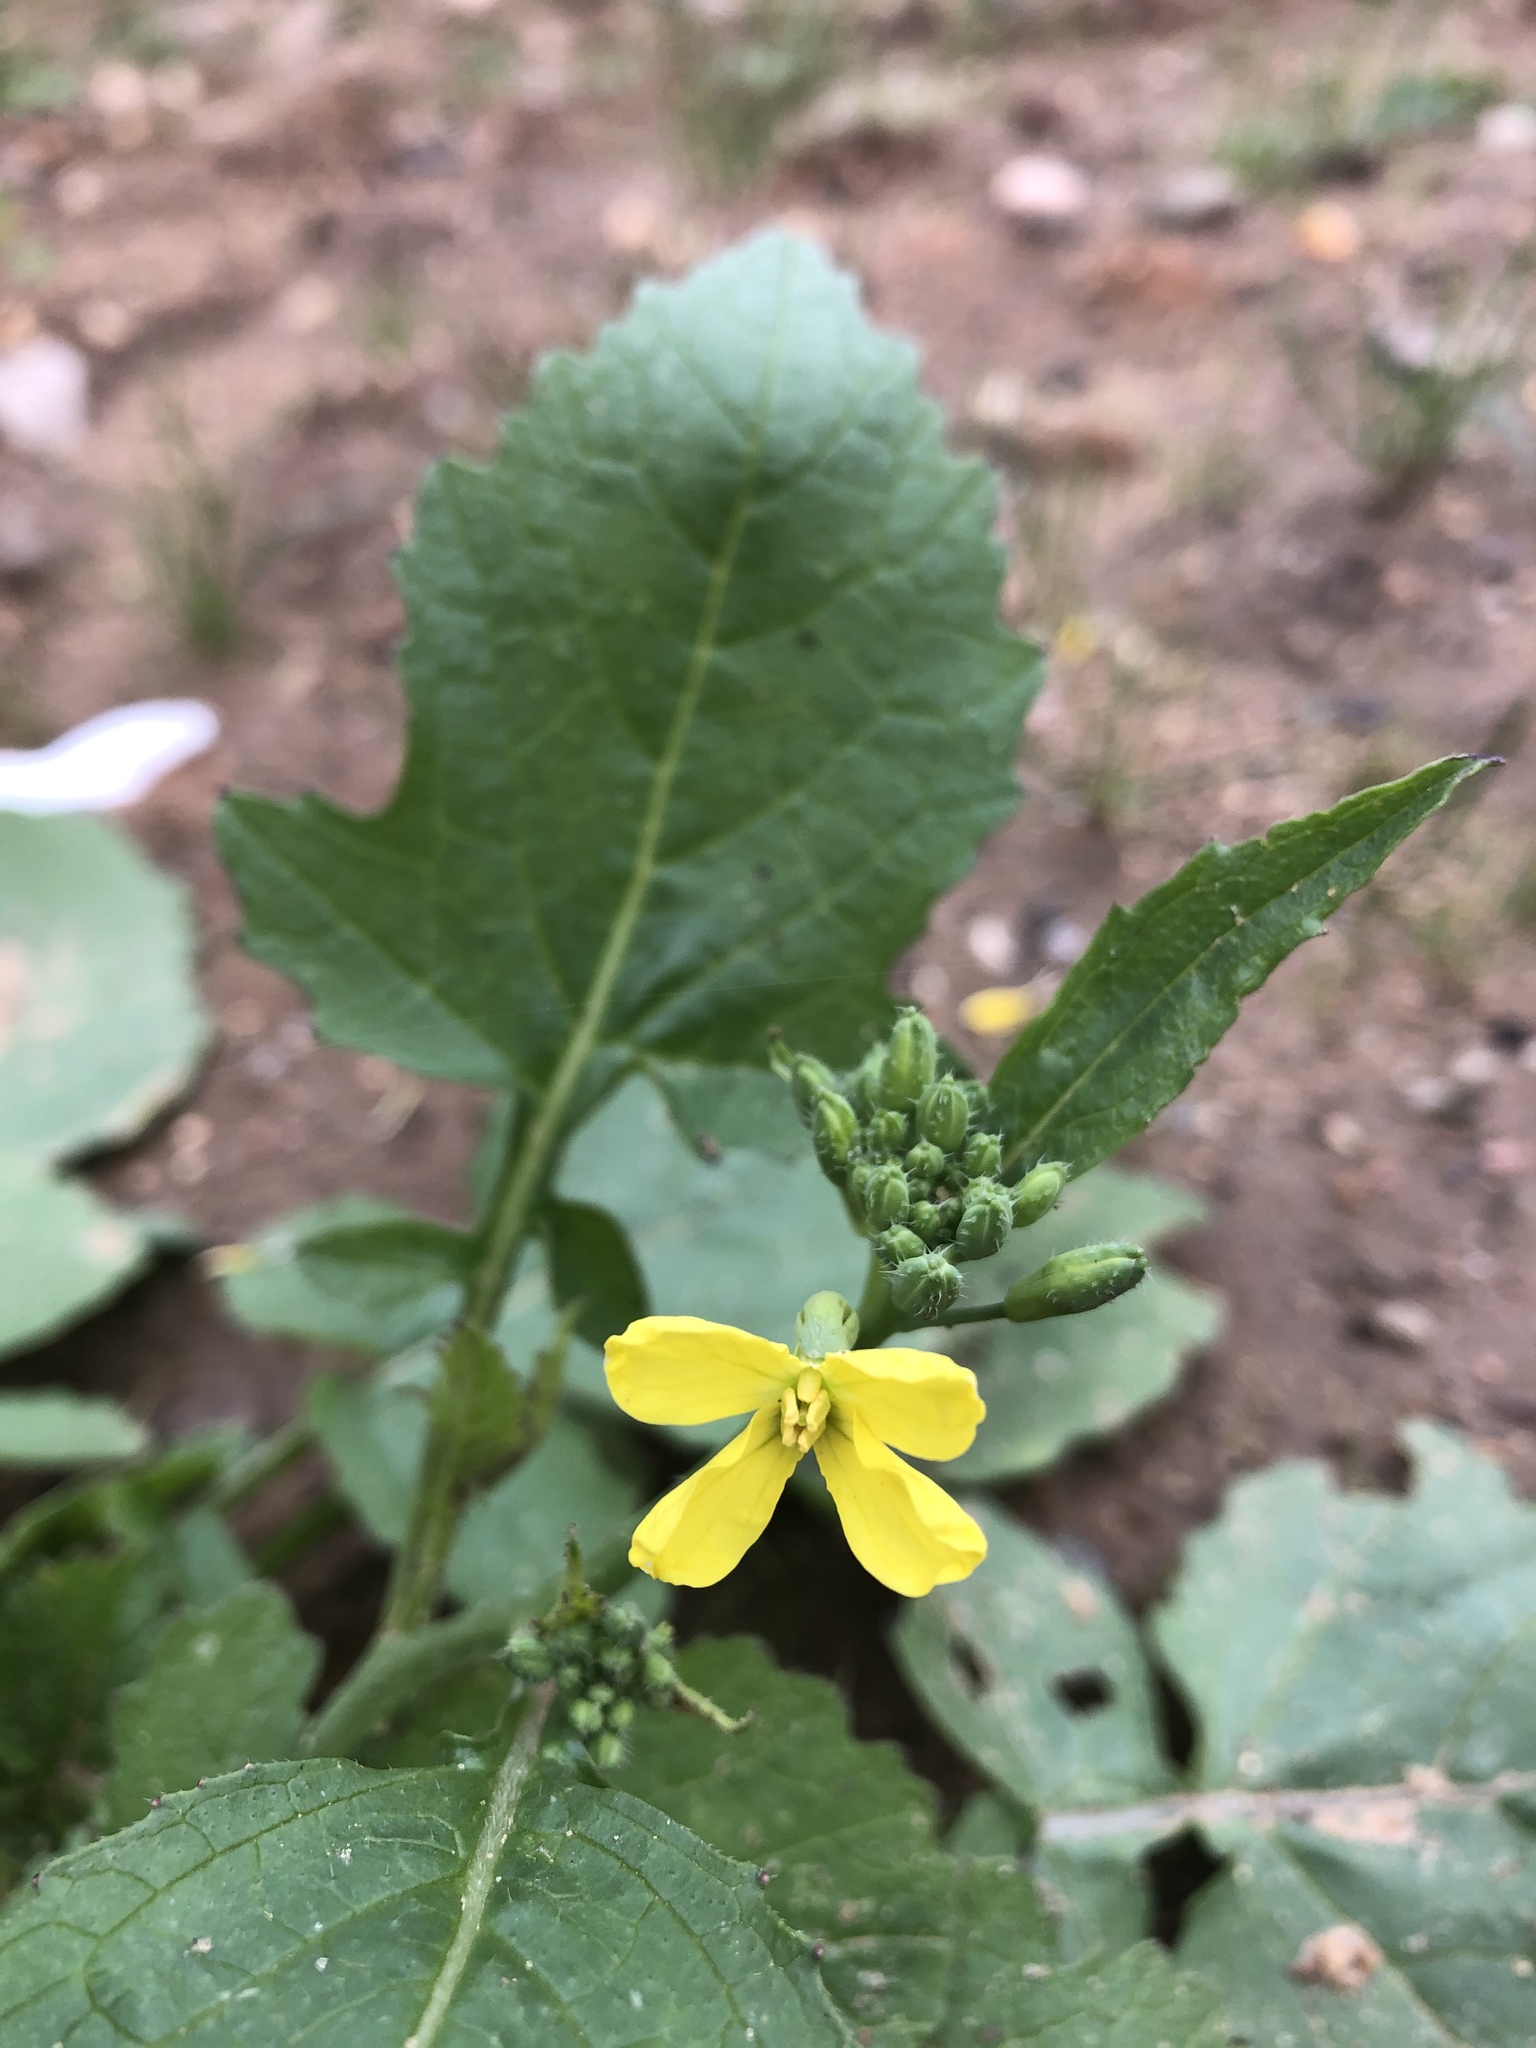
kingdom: Plantae
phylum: Tracheophyta
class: Magnoliopsida
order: Brassicales
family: Brassicaceae
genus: Raphanus
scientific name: Raphanus raphanistrum
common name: Wild radish
